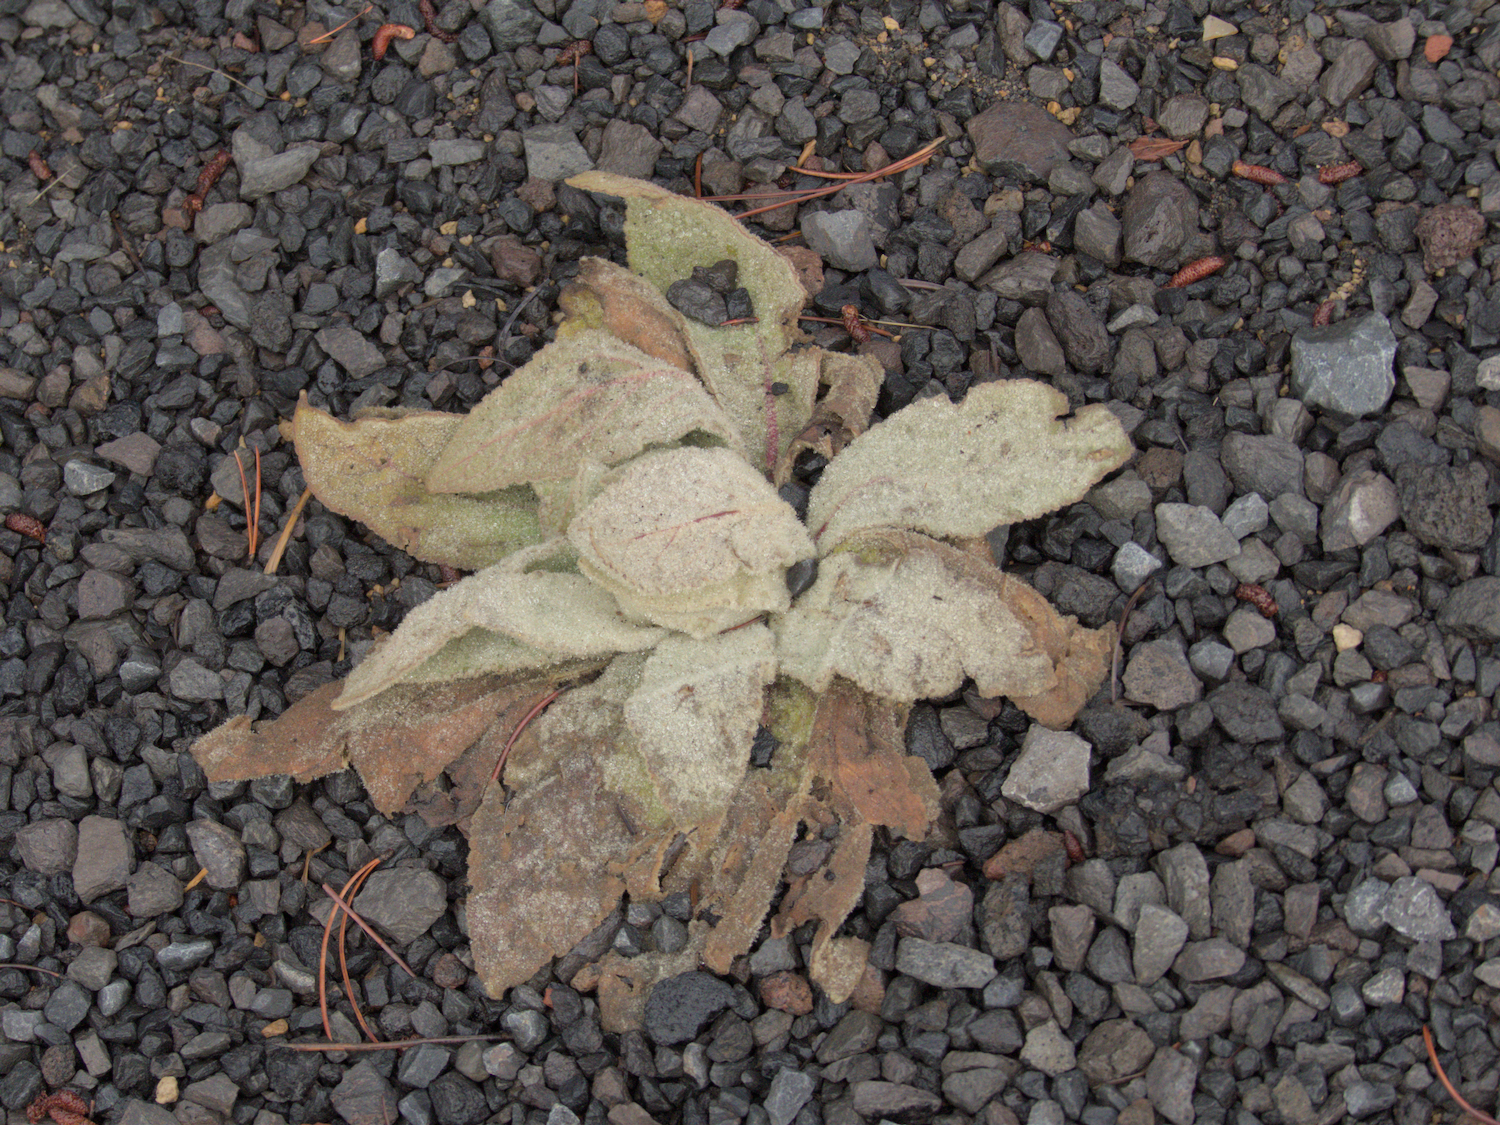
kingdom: Plantae
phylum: Tracheophyta
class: Magnoliopsida
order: Lamiales
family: Scrophulariaceae
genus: Verbascum
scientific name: Verbascum thapsus
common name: Common mullein
